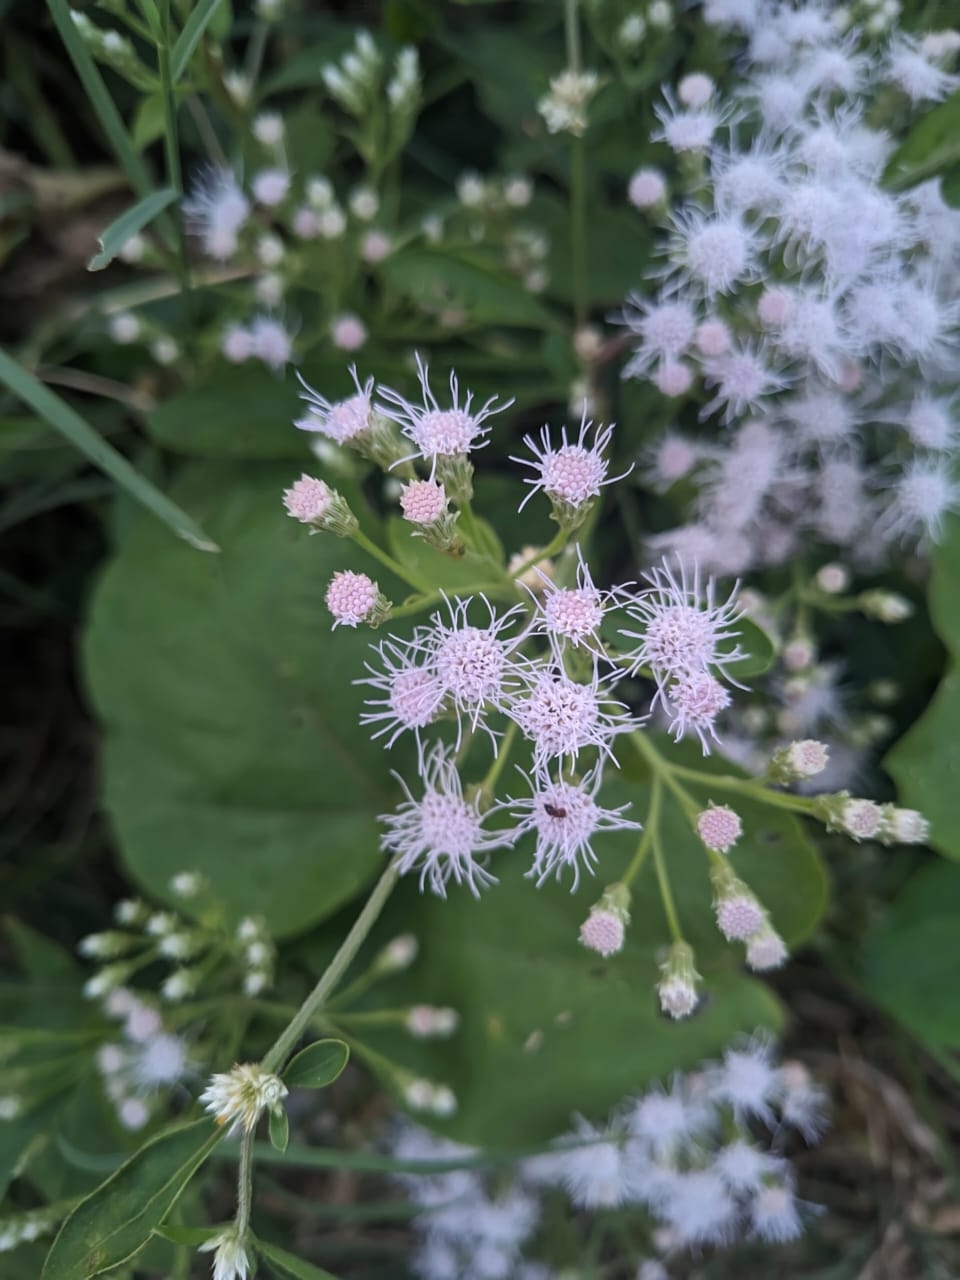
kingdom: Plantae
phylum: Tracheophyta
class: Magnoliopsida
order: Asterales
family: Asteraceae
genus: Chromolaena
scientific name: Chromolaena odorata
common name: Siamweed
